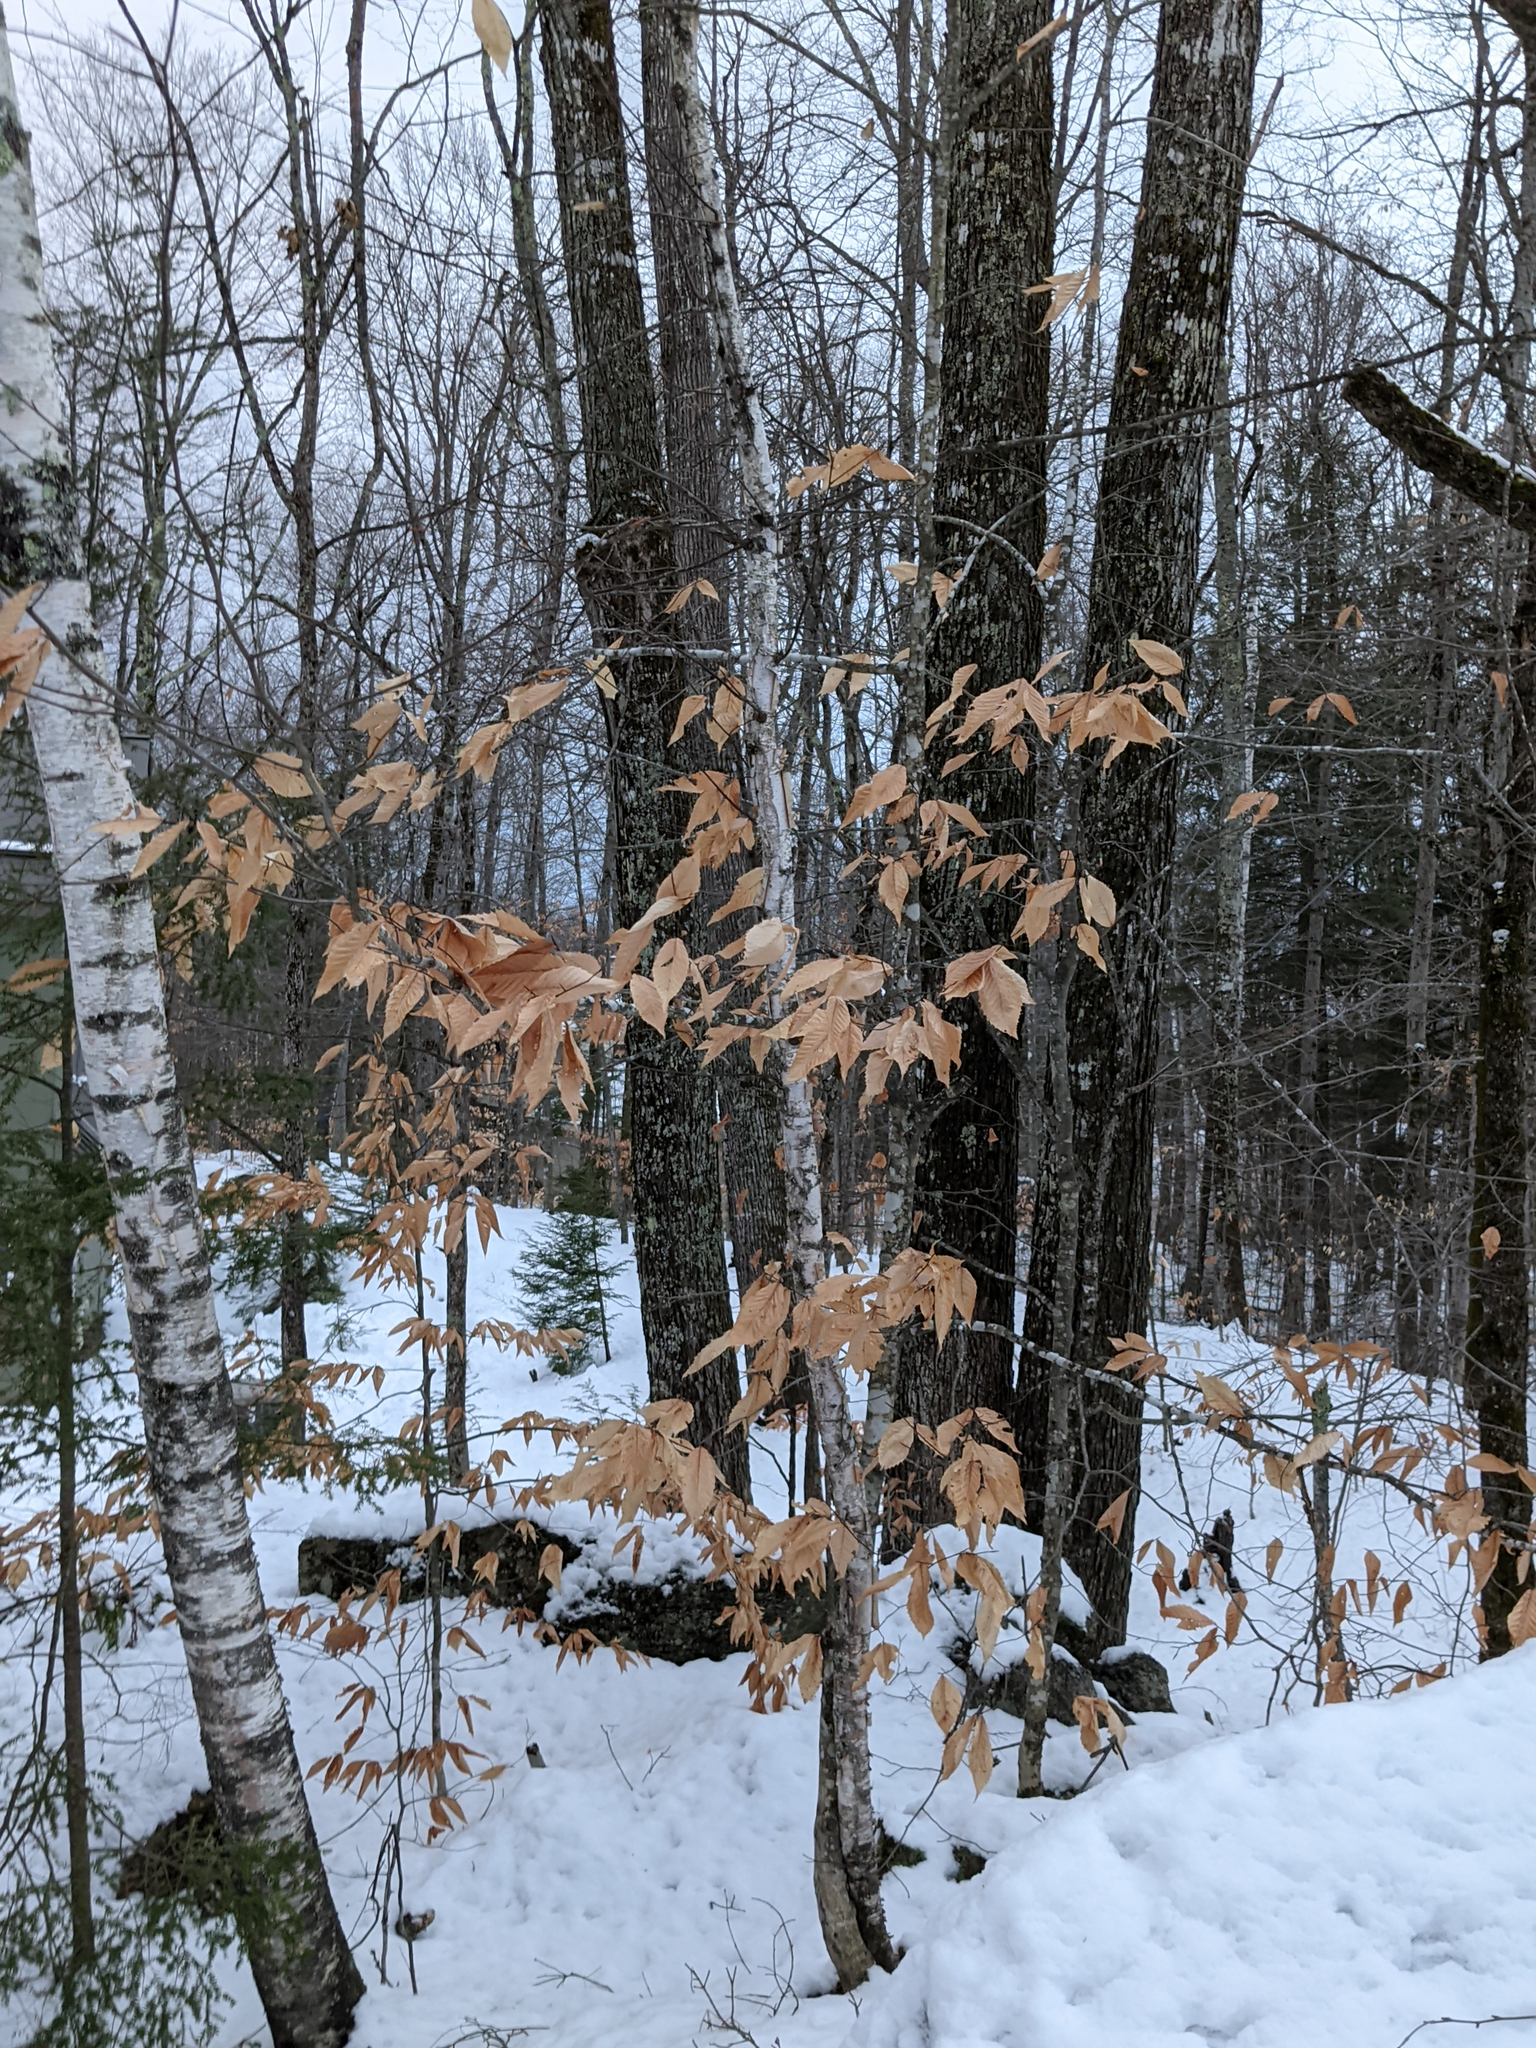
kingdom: Plantae
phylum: Tracheophyta
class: Magnoliopsida
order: Fagales
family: Fagaceae
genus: Fagus
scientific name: Fagus grandifolia
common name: American beech
